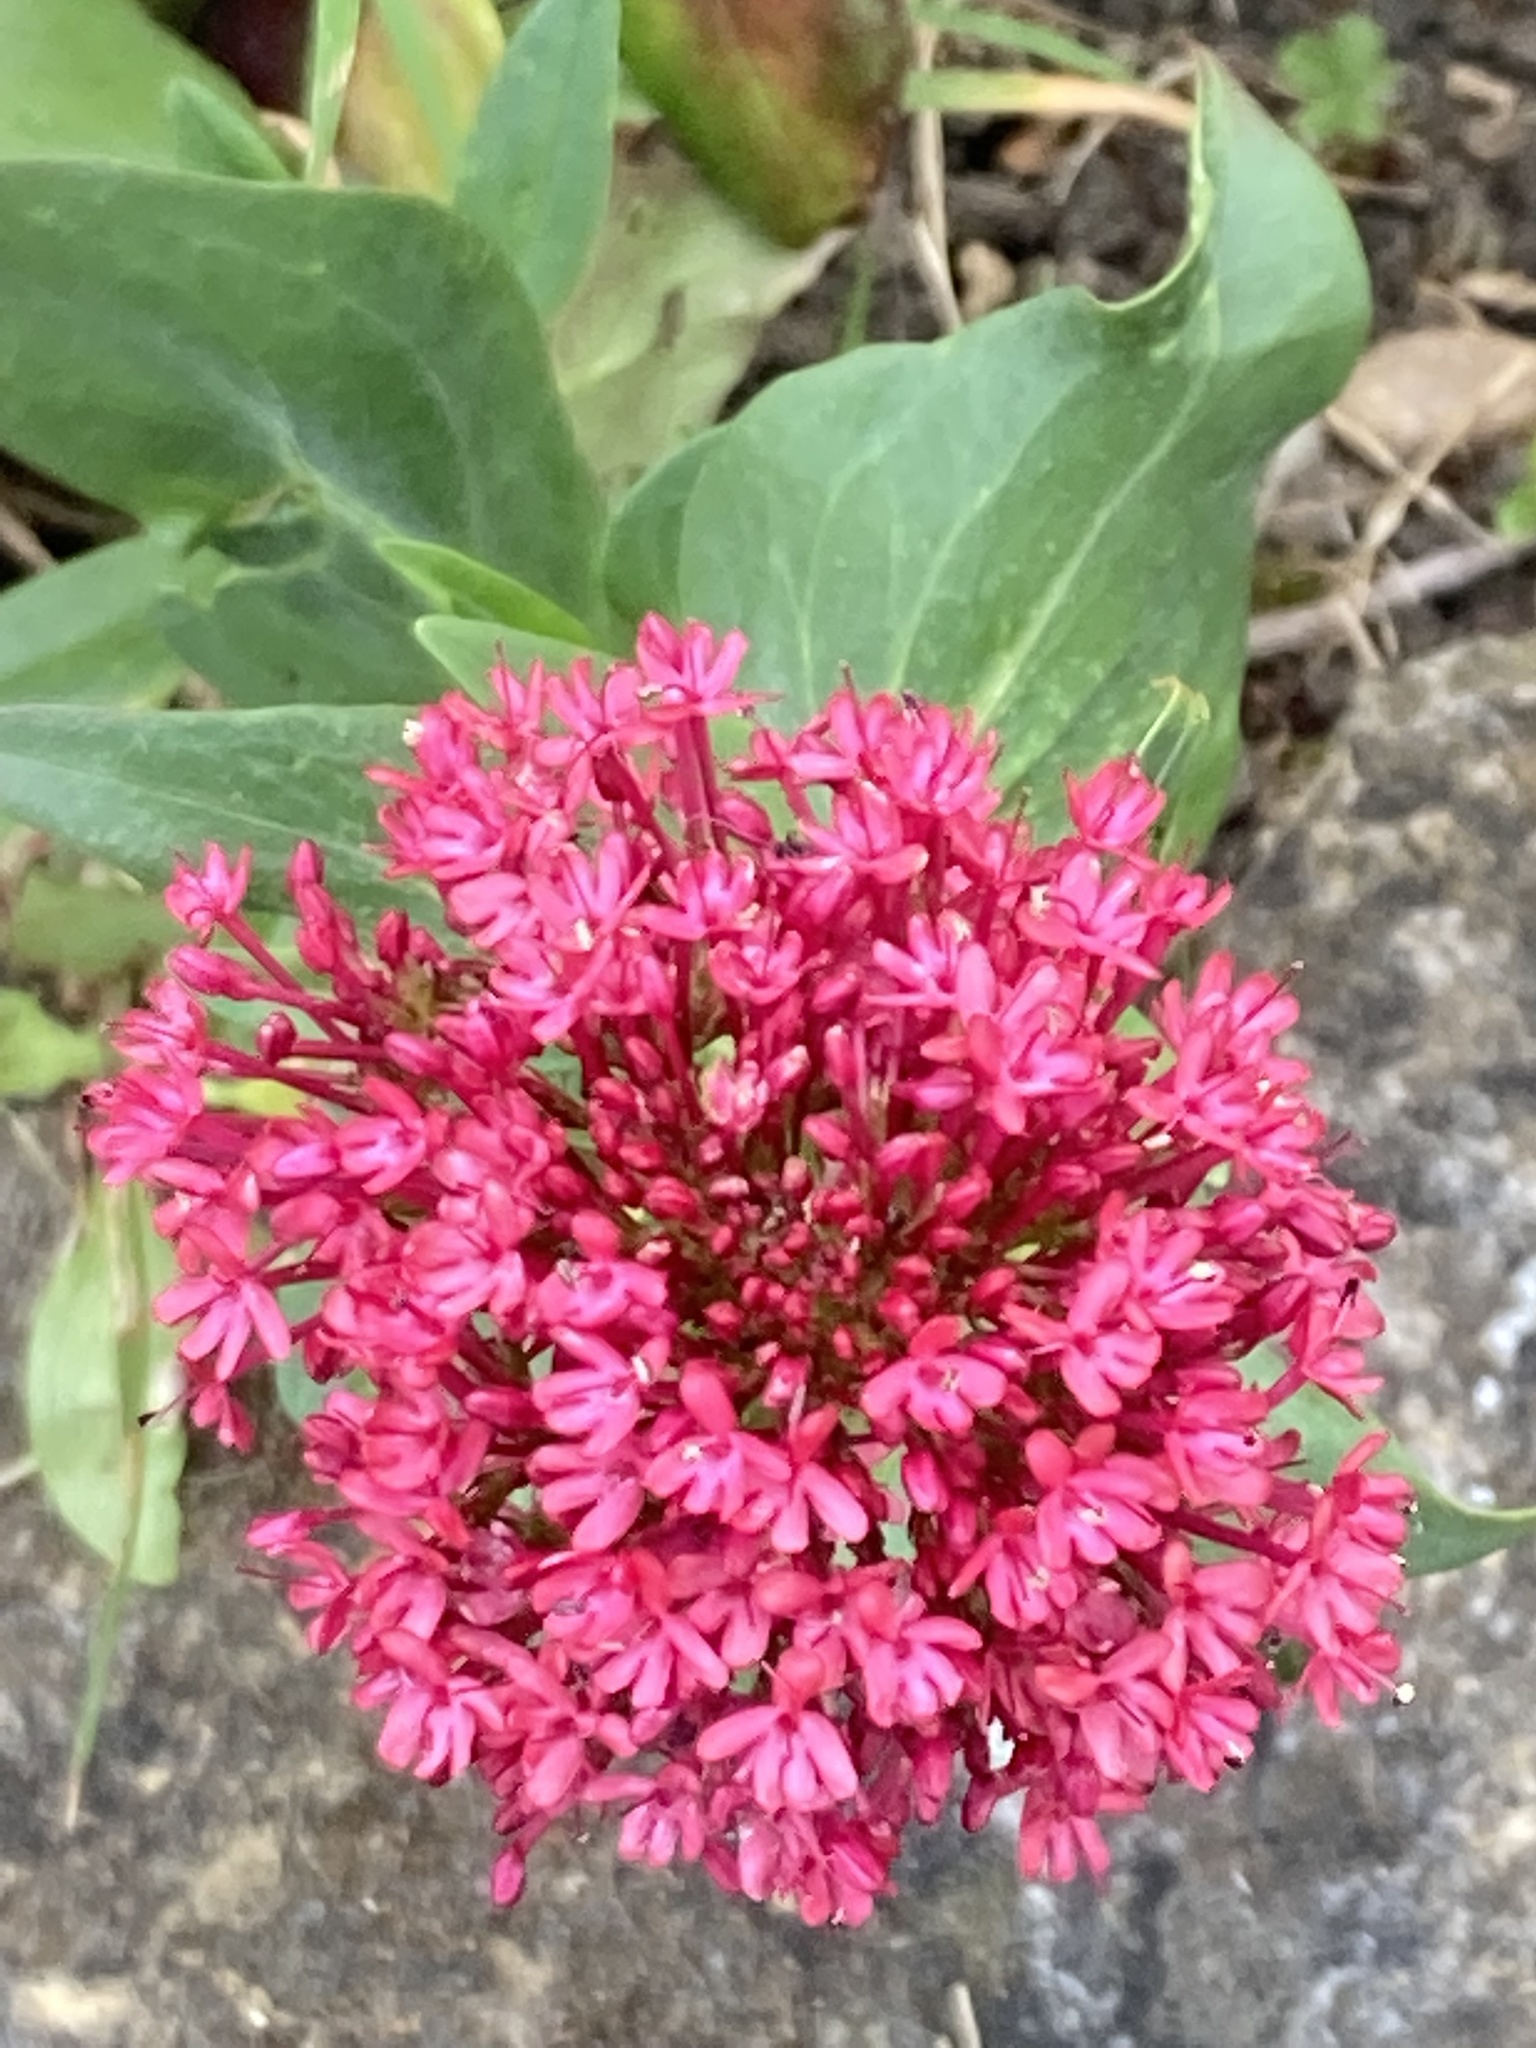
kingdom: Plantae
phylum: Tracheophyta
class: Magnoliopsida
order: Dipsacales
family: Caprifoliaceae
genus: Centranthus
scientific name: Centranthus ruber
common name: Red valerian
